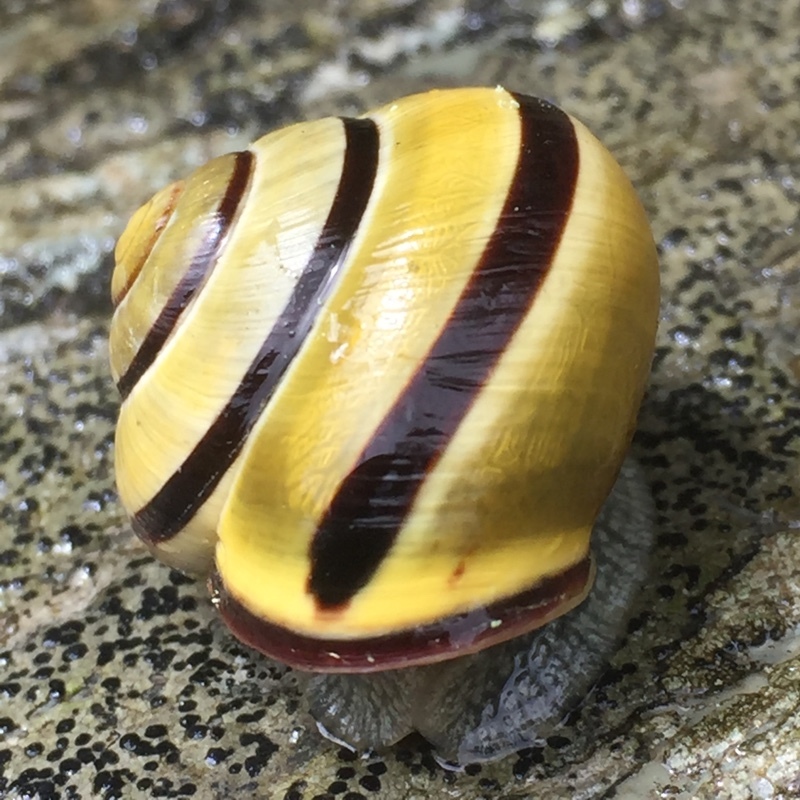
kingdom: Animalia
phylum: Mollusca
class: Gastropoda
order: Stylommatophora
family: Helicidae
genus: Cepaea
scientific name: Cepaea nemoralis
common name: Grovesnail
